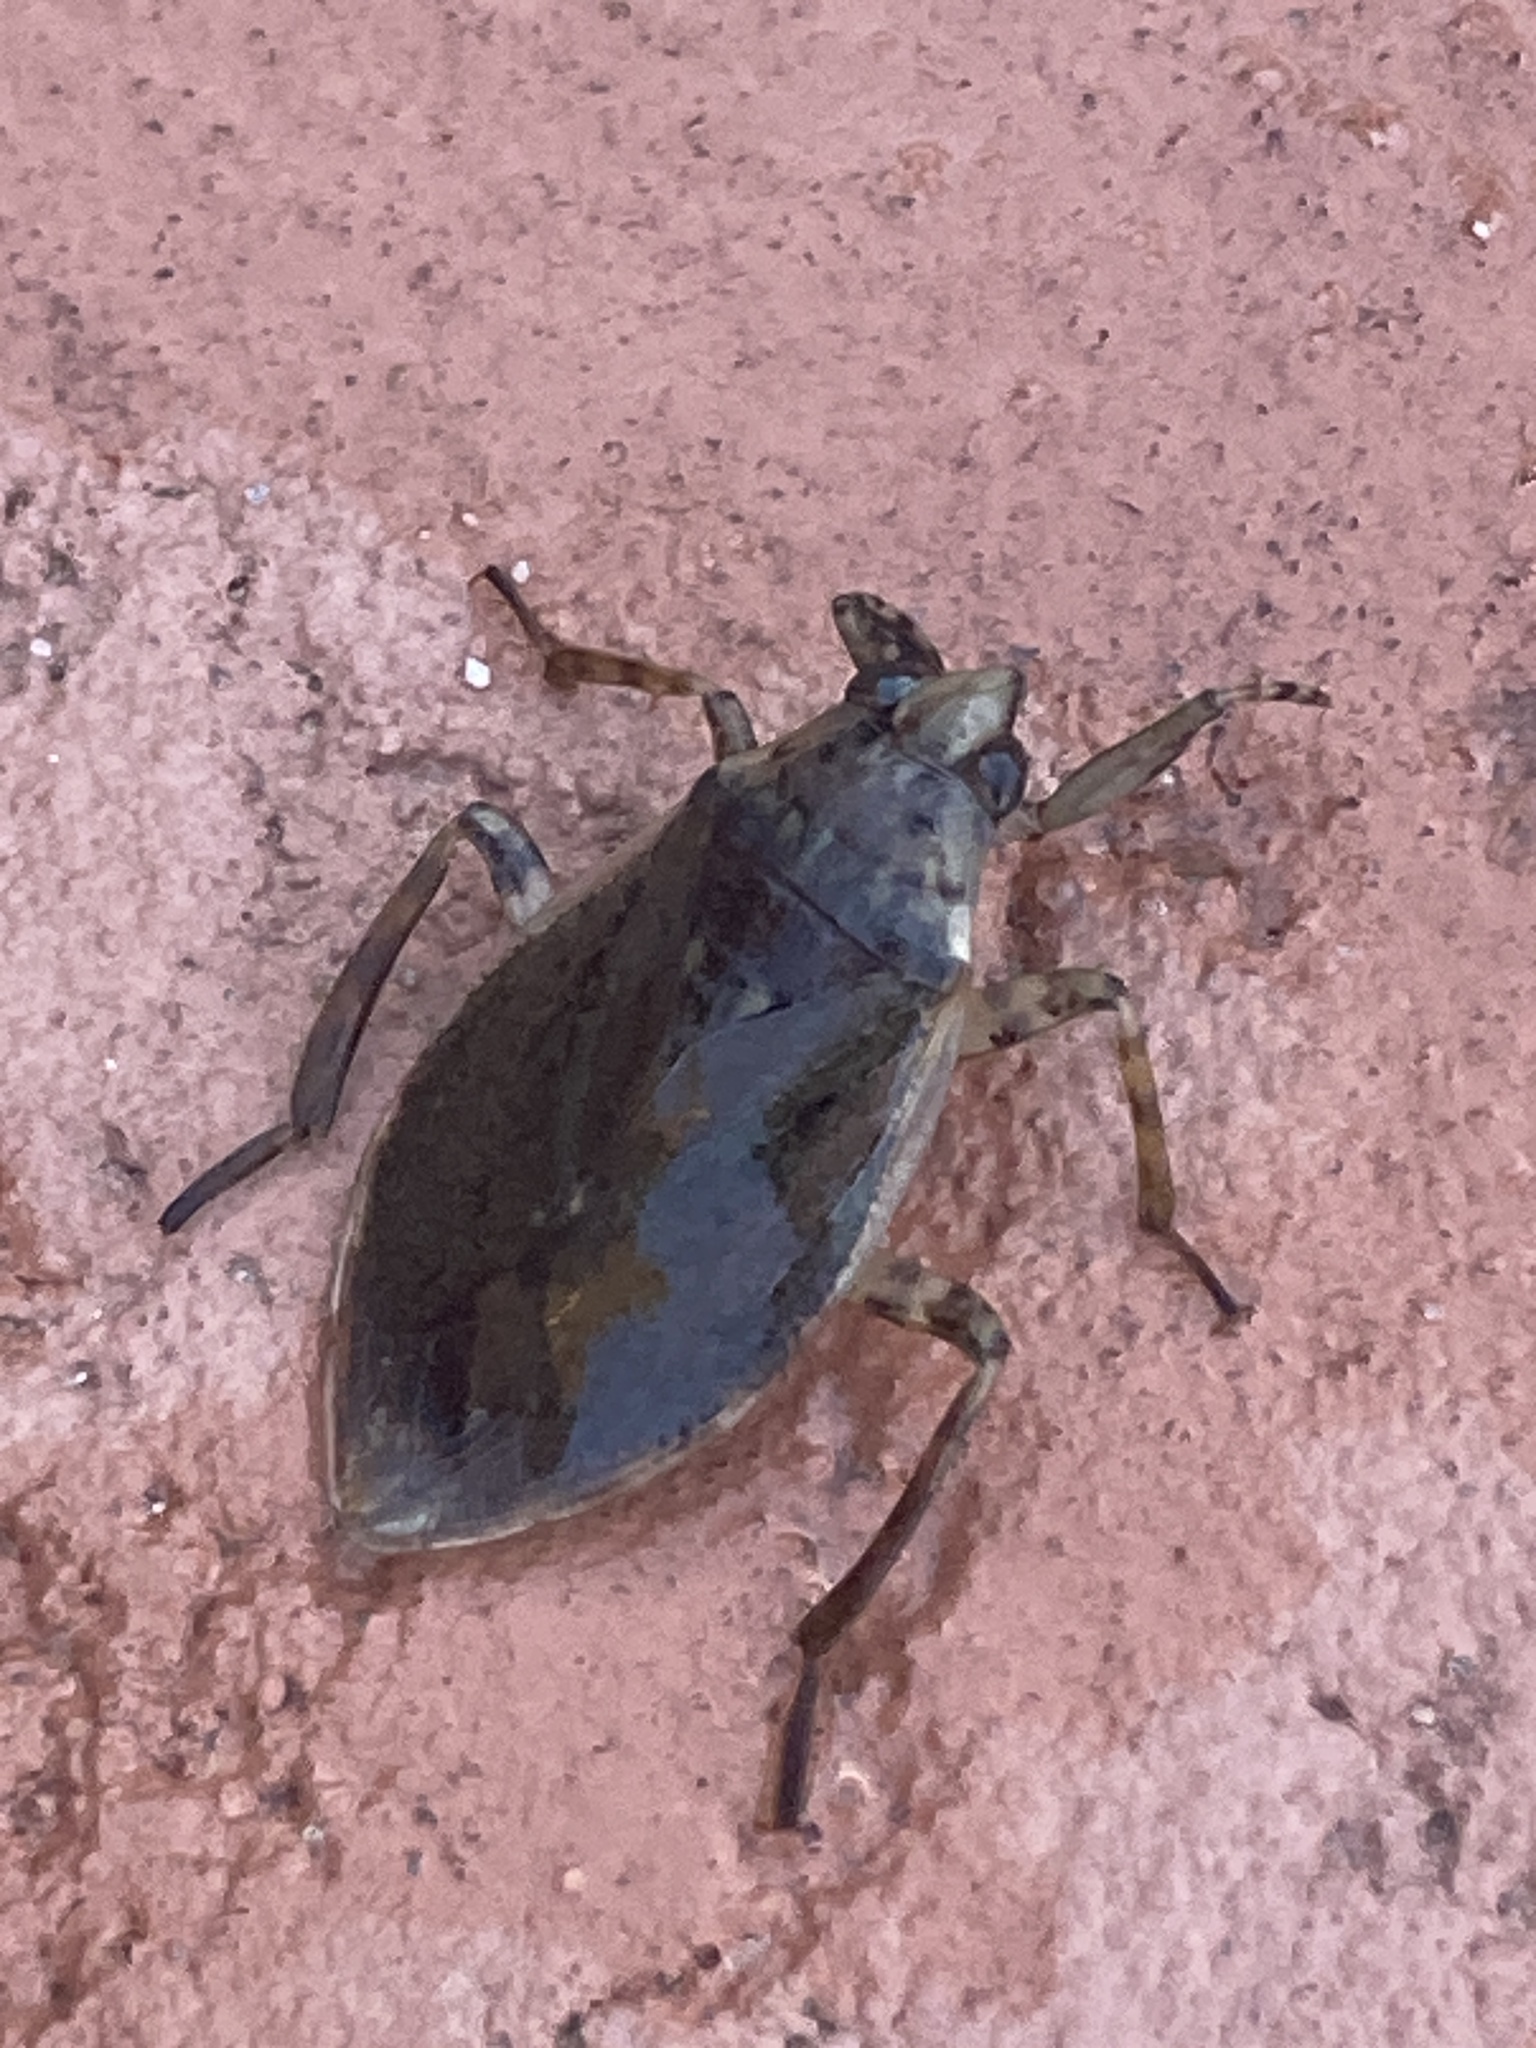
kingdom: Animalia
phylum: Arthropoda
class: Insecta
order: Hemiptera
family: Belostomatidae
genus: Belostoma
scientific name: Belostoma
